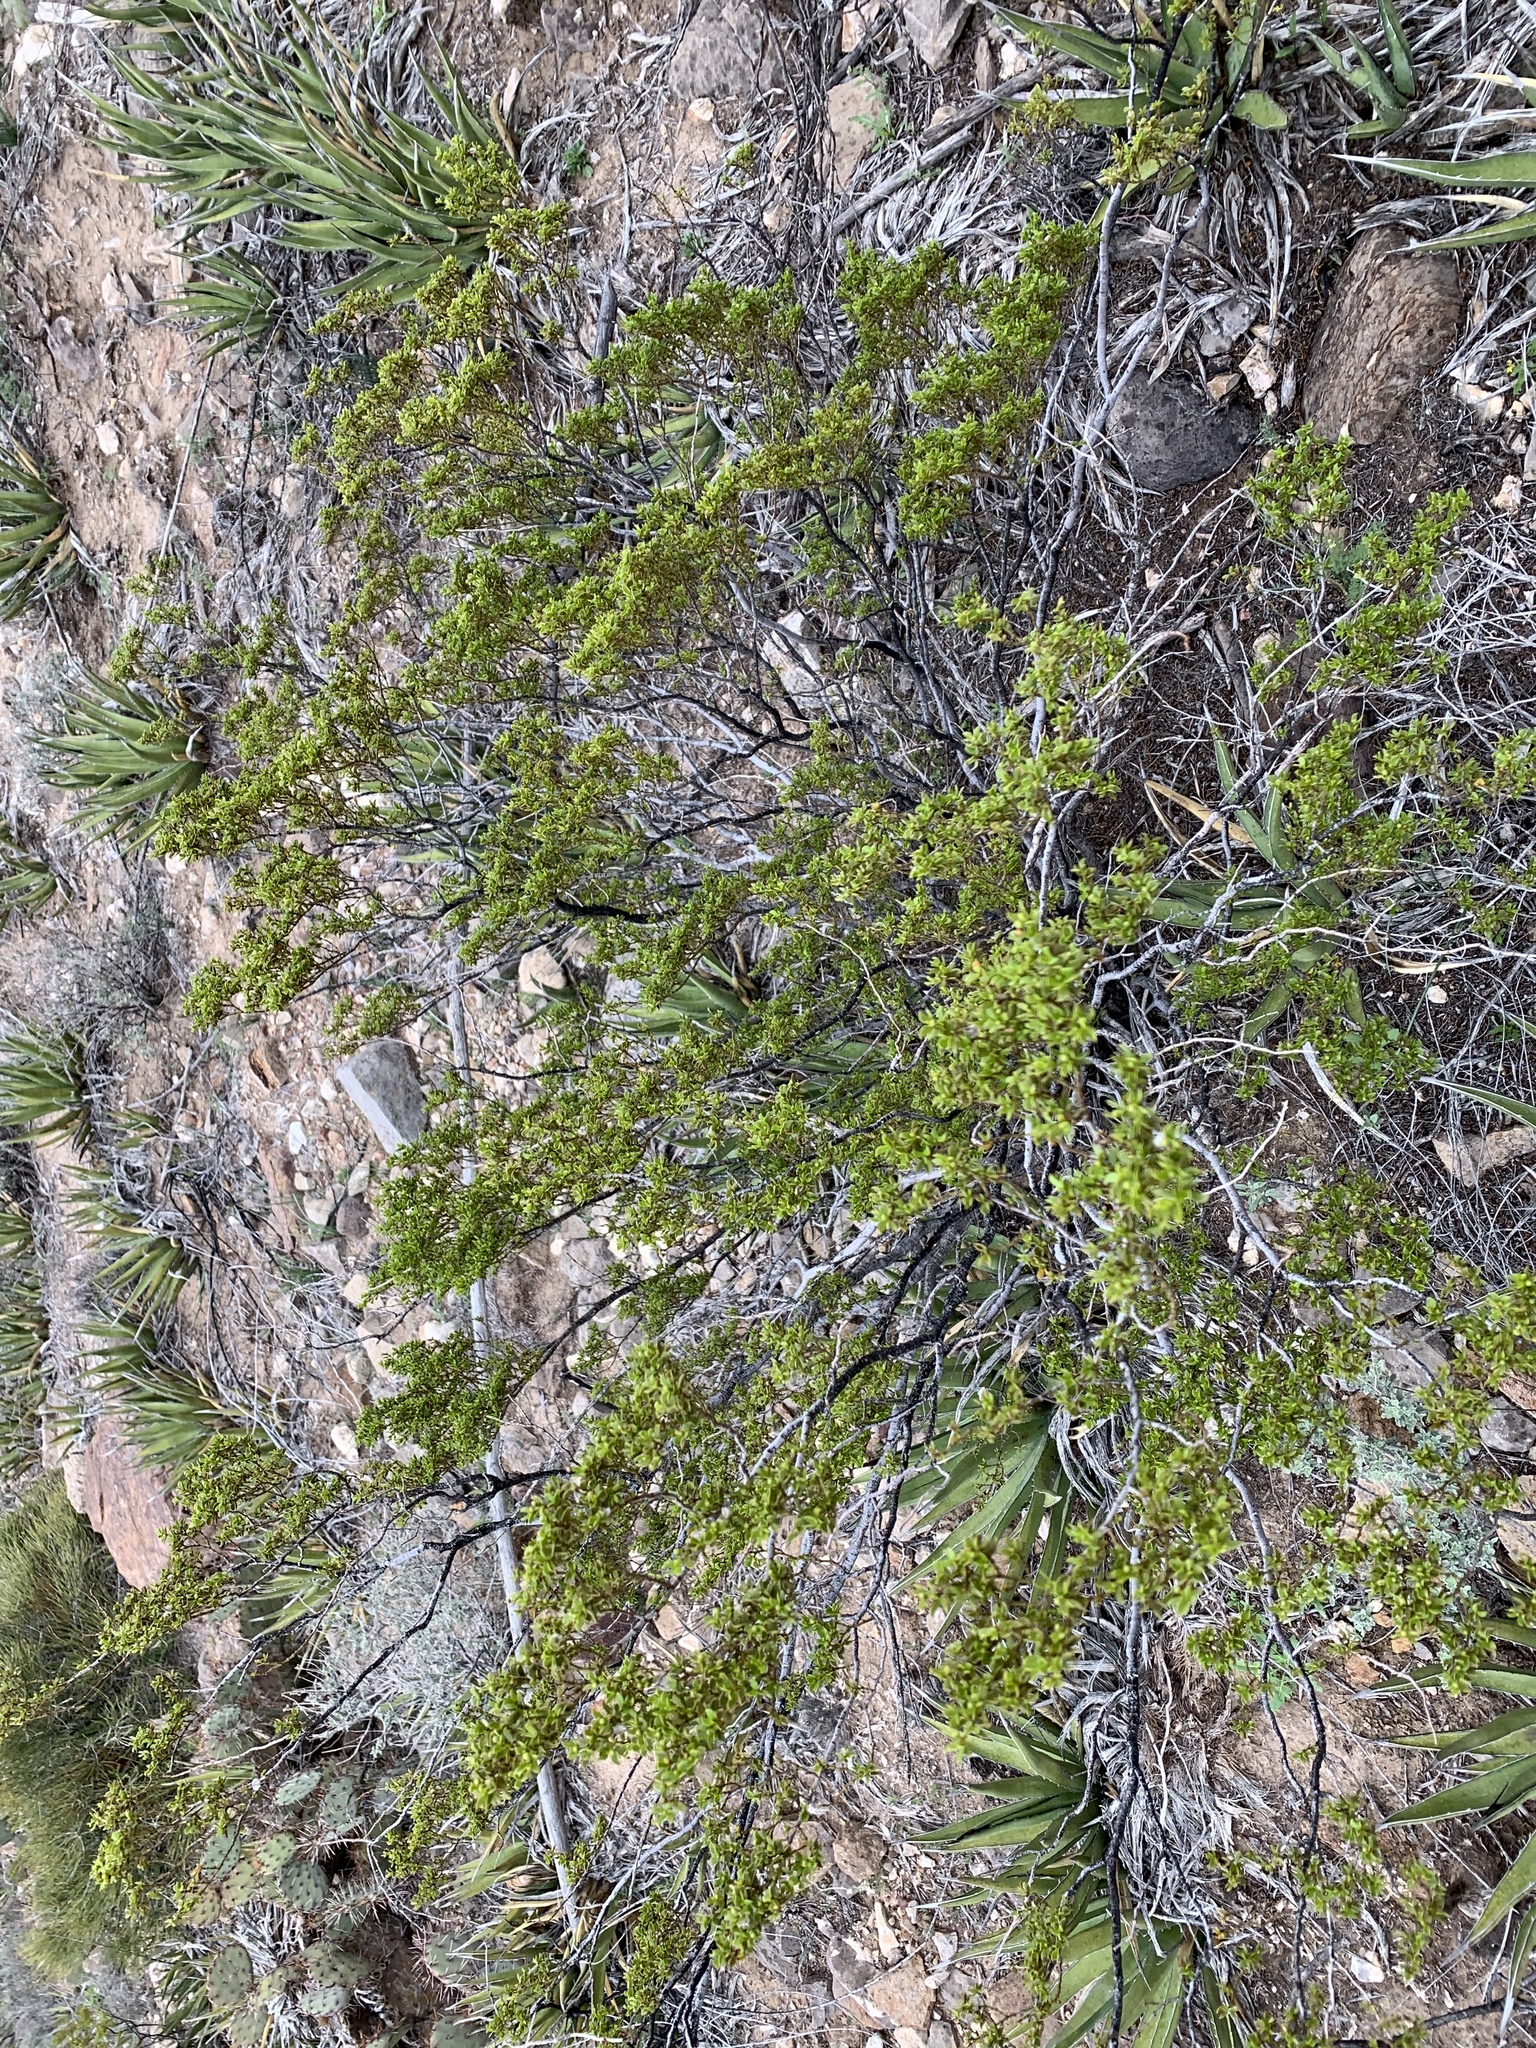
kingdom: Plantae
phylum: Tracheophyta
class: Magnoliopsida
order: Zygophyllales
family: Zygophyllaceae
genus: Larrea
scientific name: Larrea tridentata
